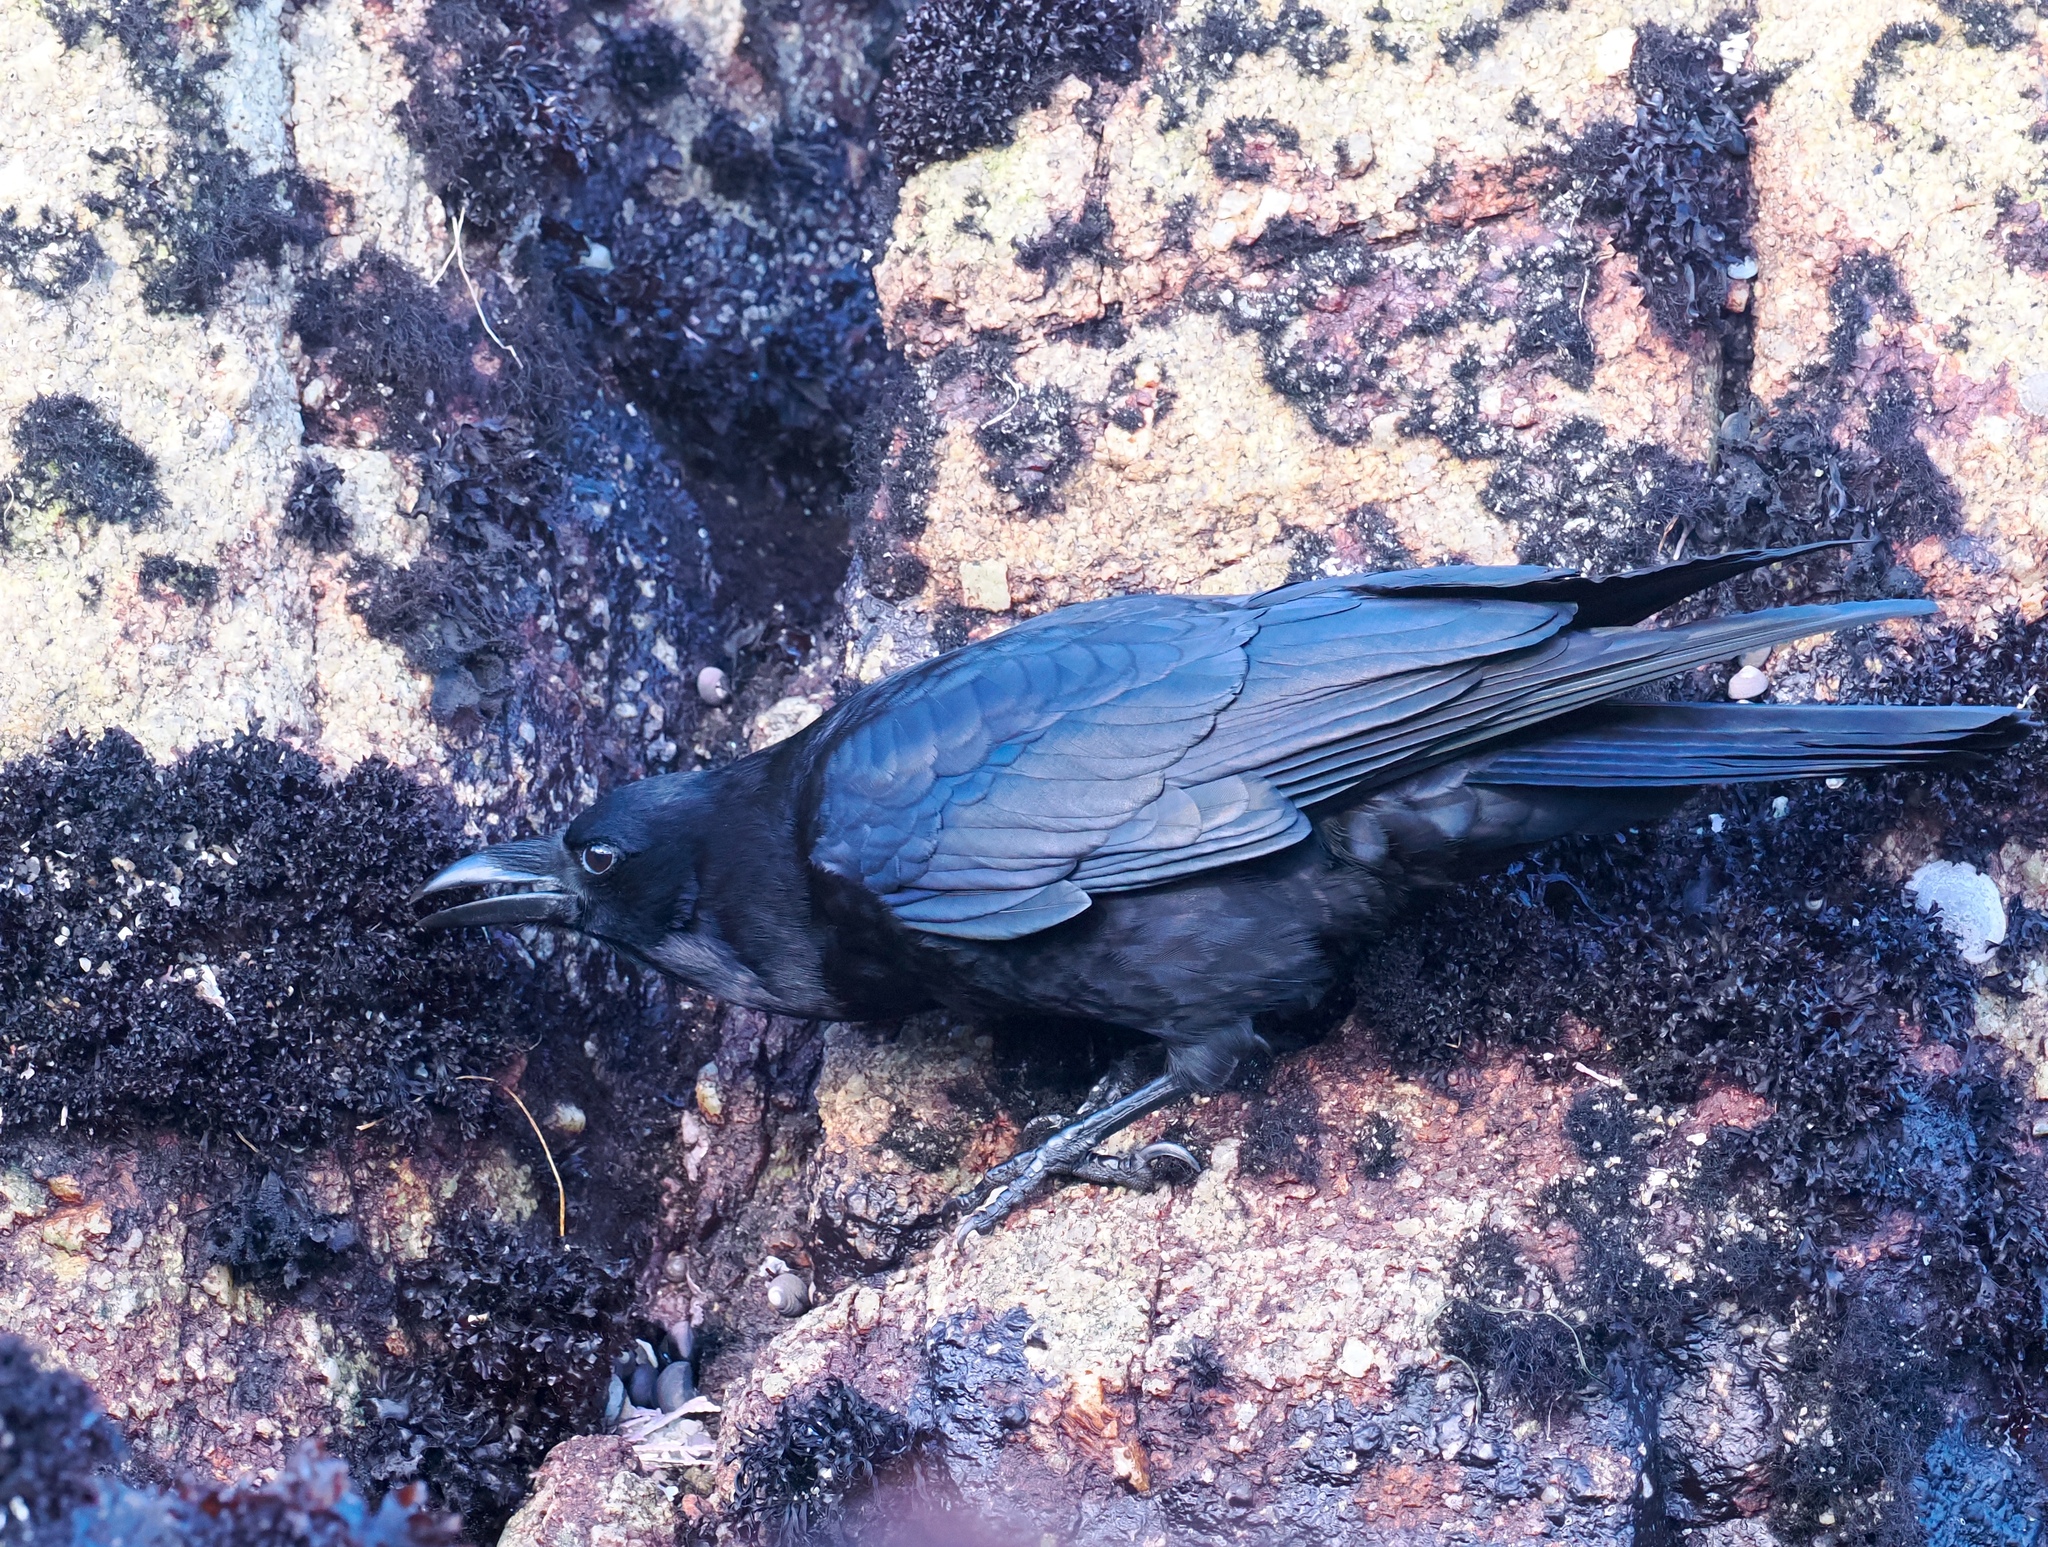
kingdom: Animalia
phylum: Chordata
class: Aves
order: Passeriformes
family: Corvidae
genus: Corvus
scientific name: Corvus brachyrhynchos
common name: American crow
